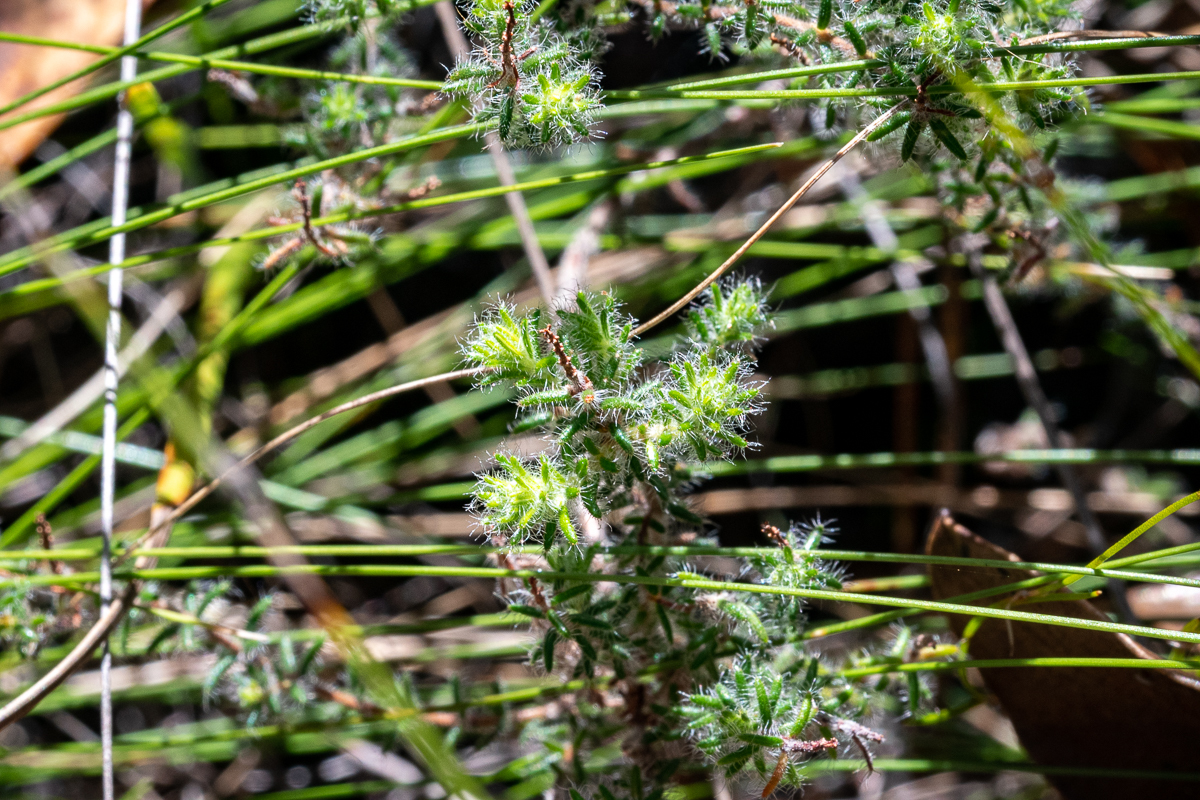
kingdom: Plantae
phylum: Tracheophyta
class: Magnoliopsida
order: Ericales
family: Ericaceae
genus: Erica
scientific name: Erica cerinthoides
